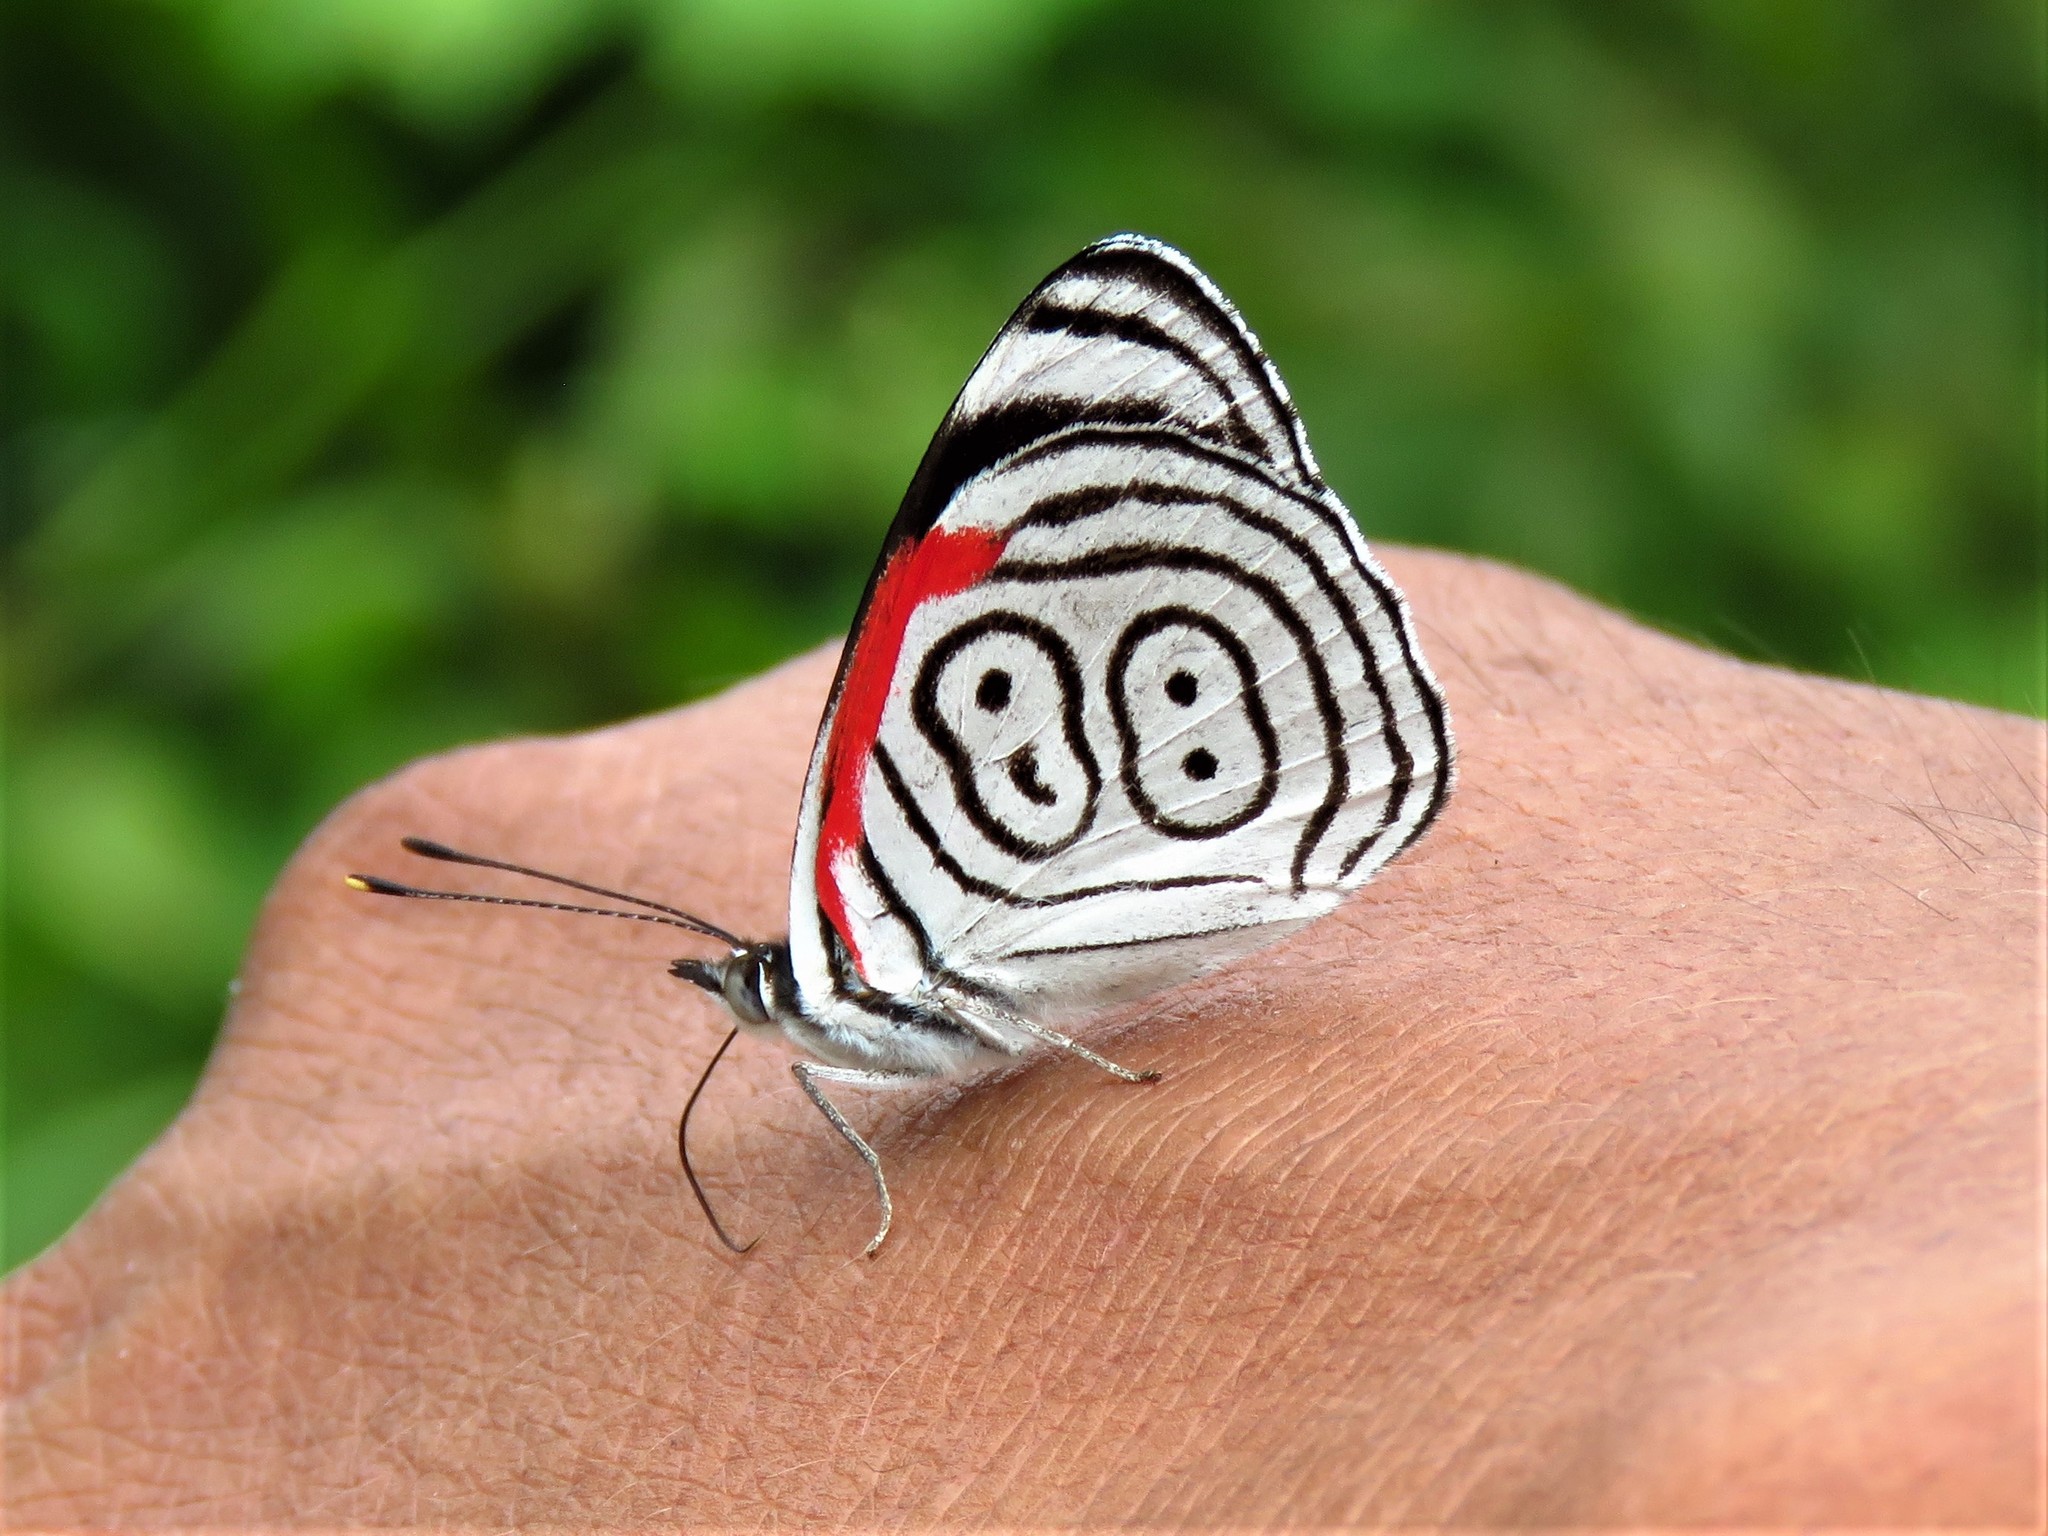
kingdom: Animalia
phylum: Arthropoda
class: Insecta
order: Lepidoptera
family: Nymphalidae
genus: Diaethria
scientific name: Diaethria anna
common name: Anna’s eighty-eight
